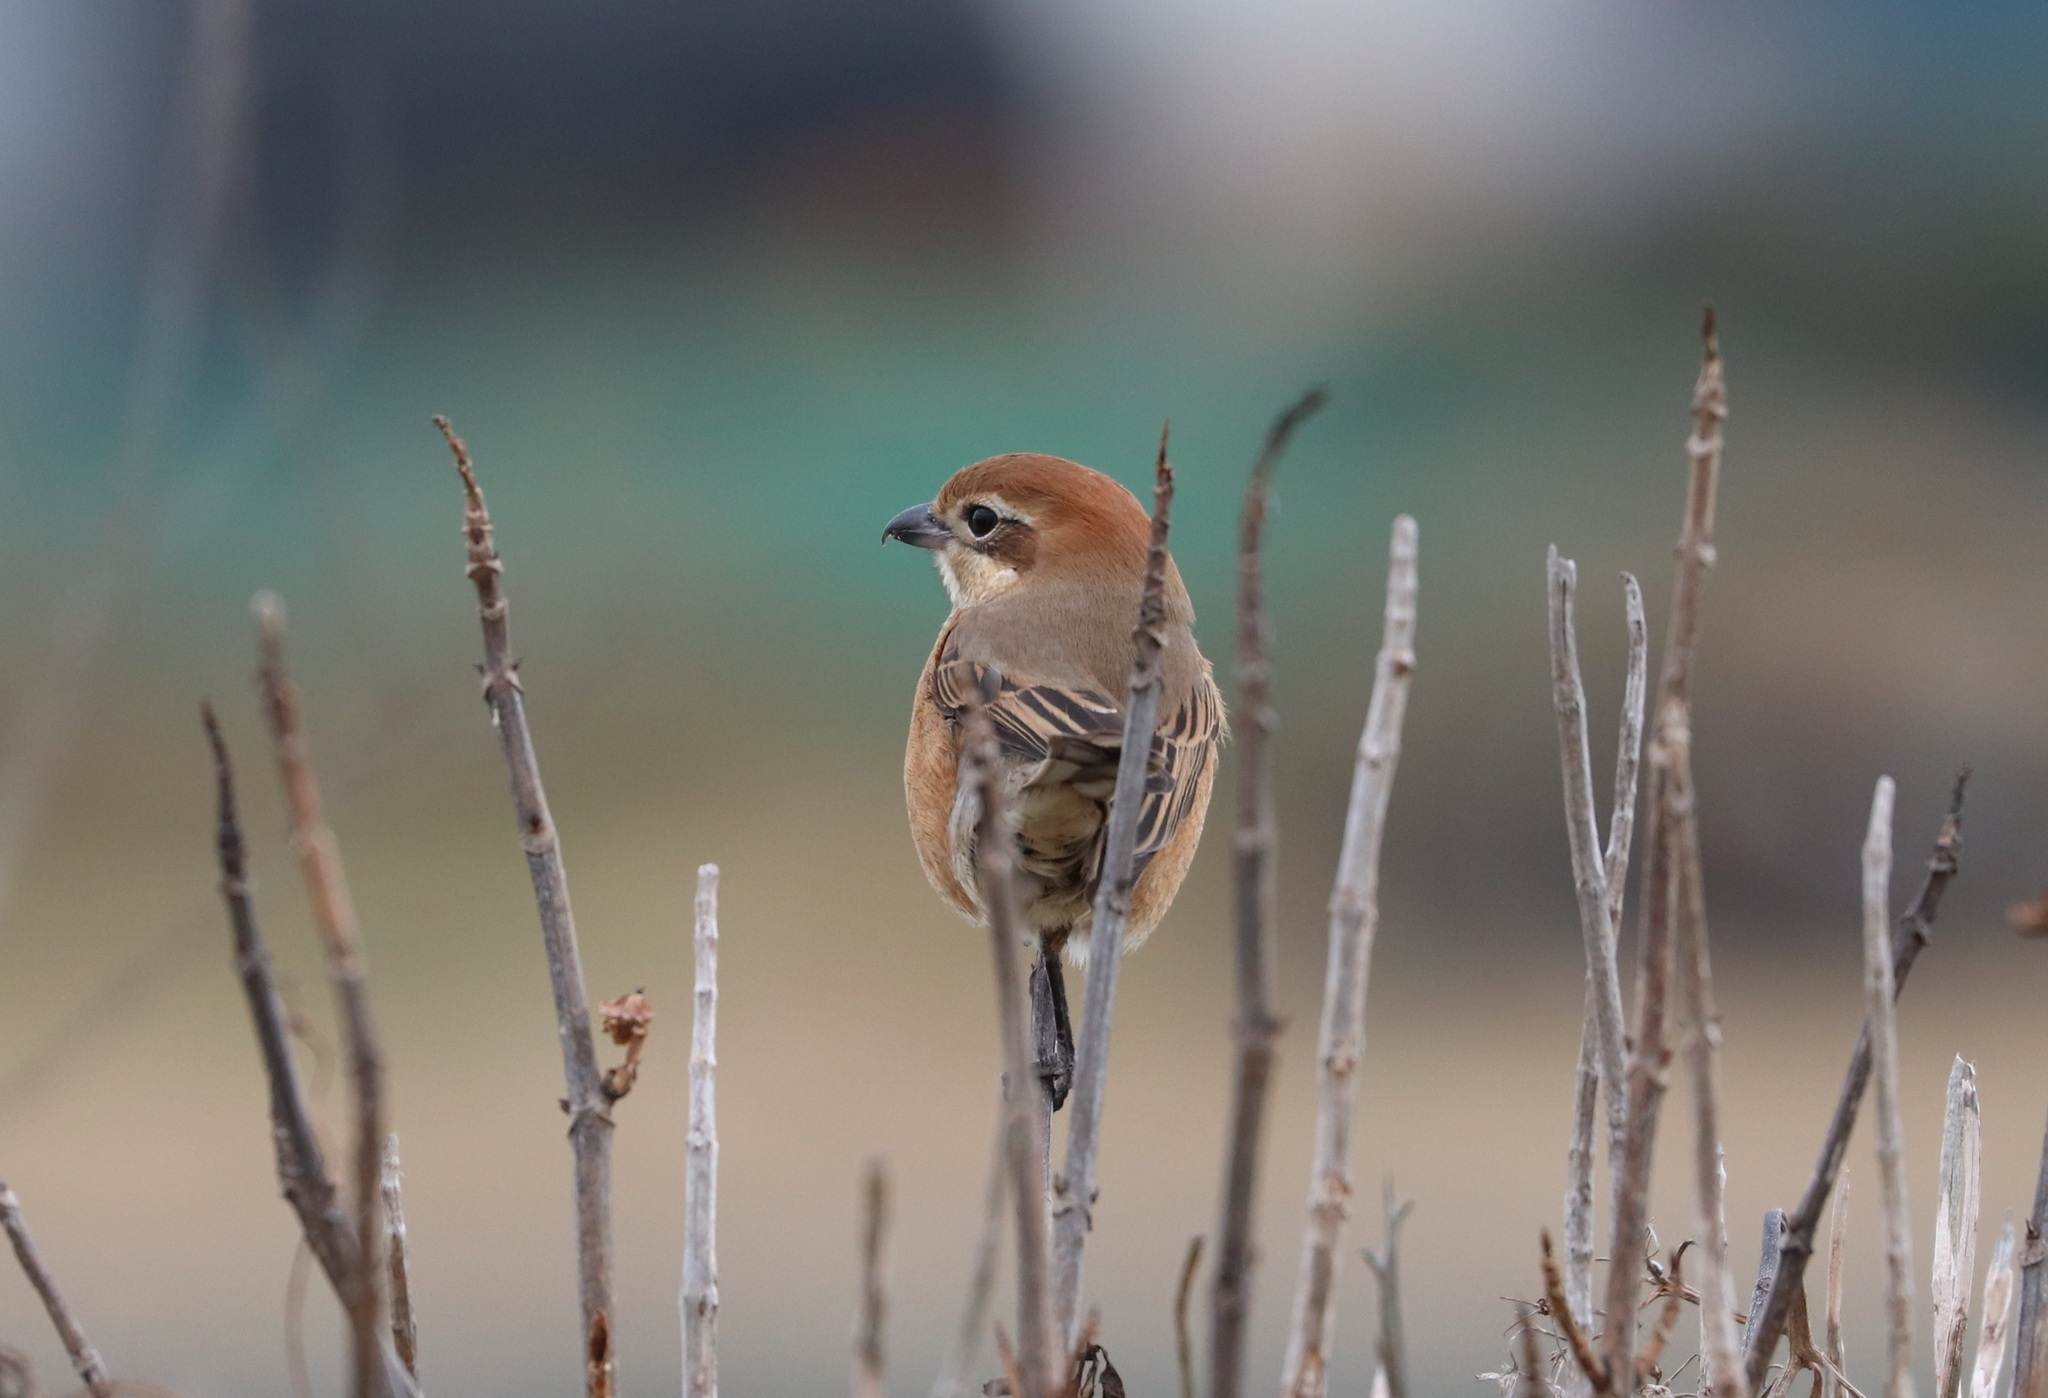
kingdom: Animalia
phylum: Chordata
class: Aves
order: Passeriformes
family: Laniidae
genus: Lanius
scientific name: Lanius bucephalus
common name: Bull-headed shrike
